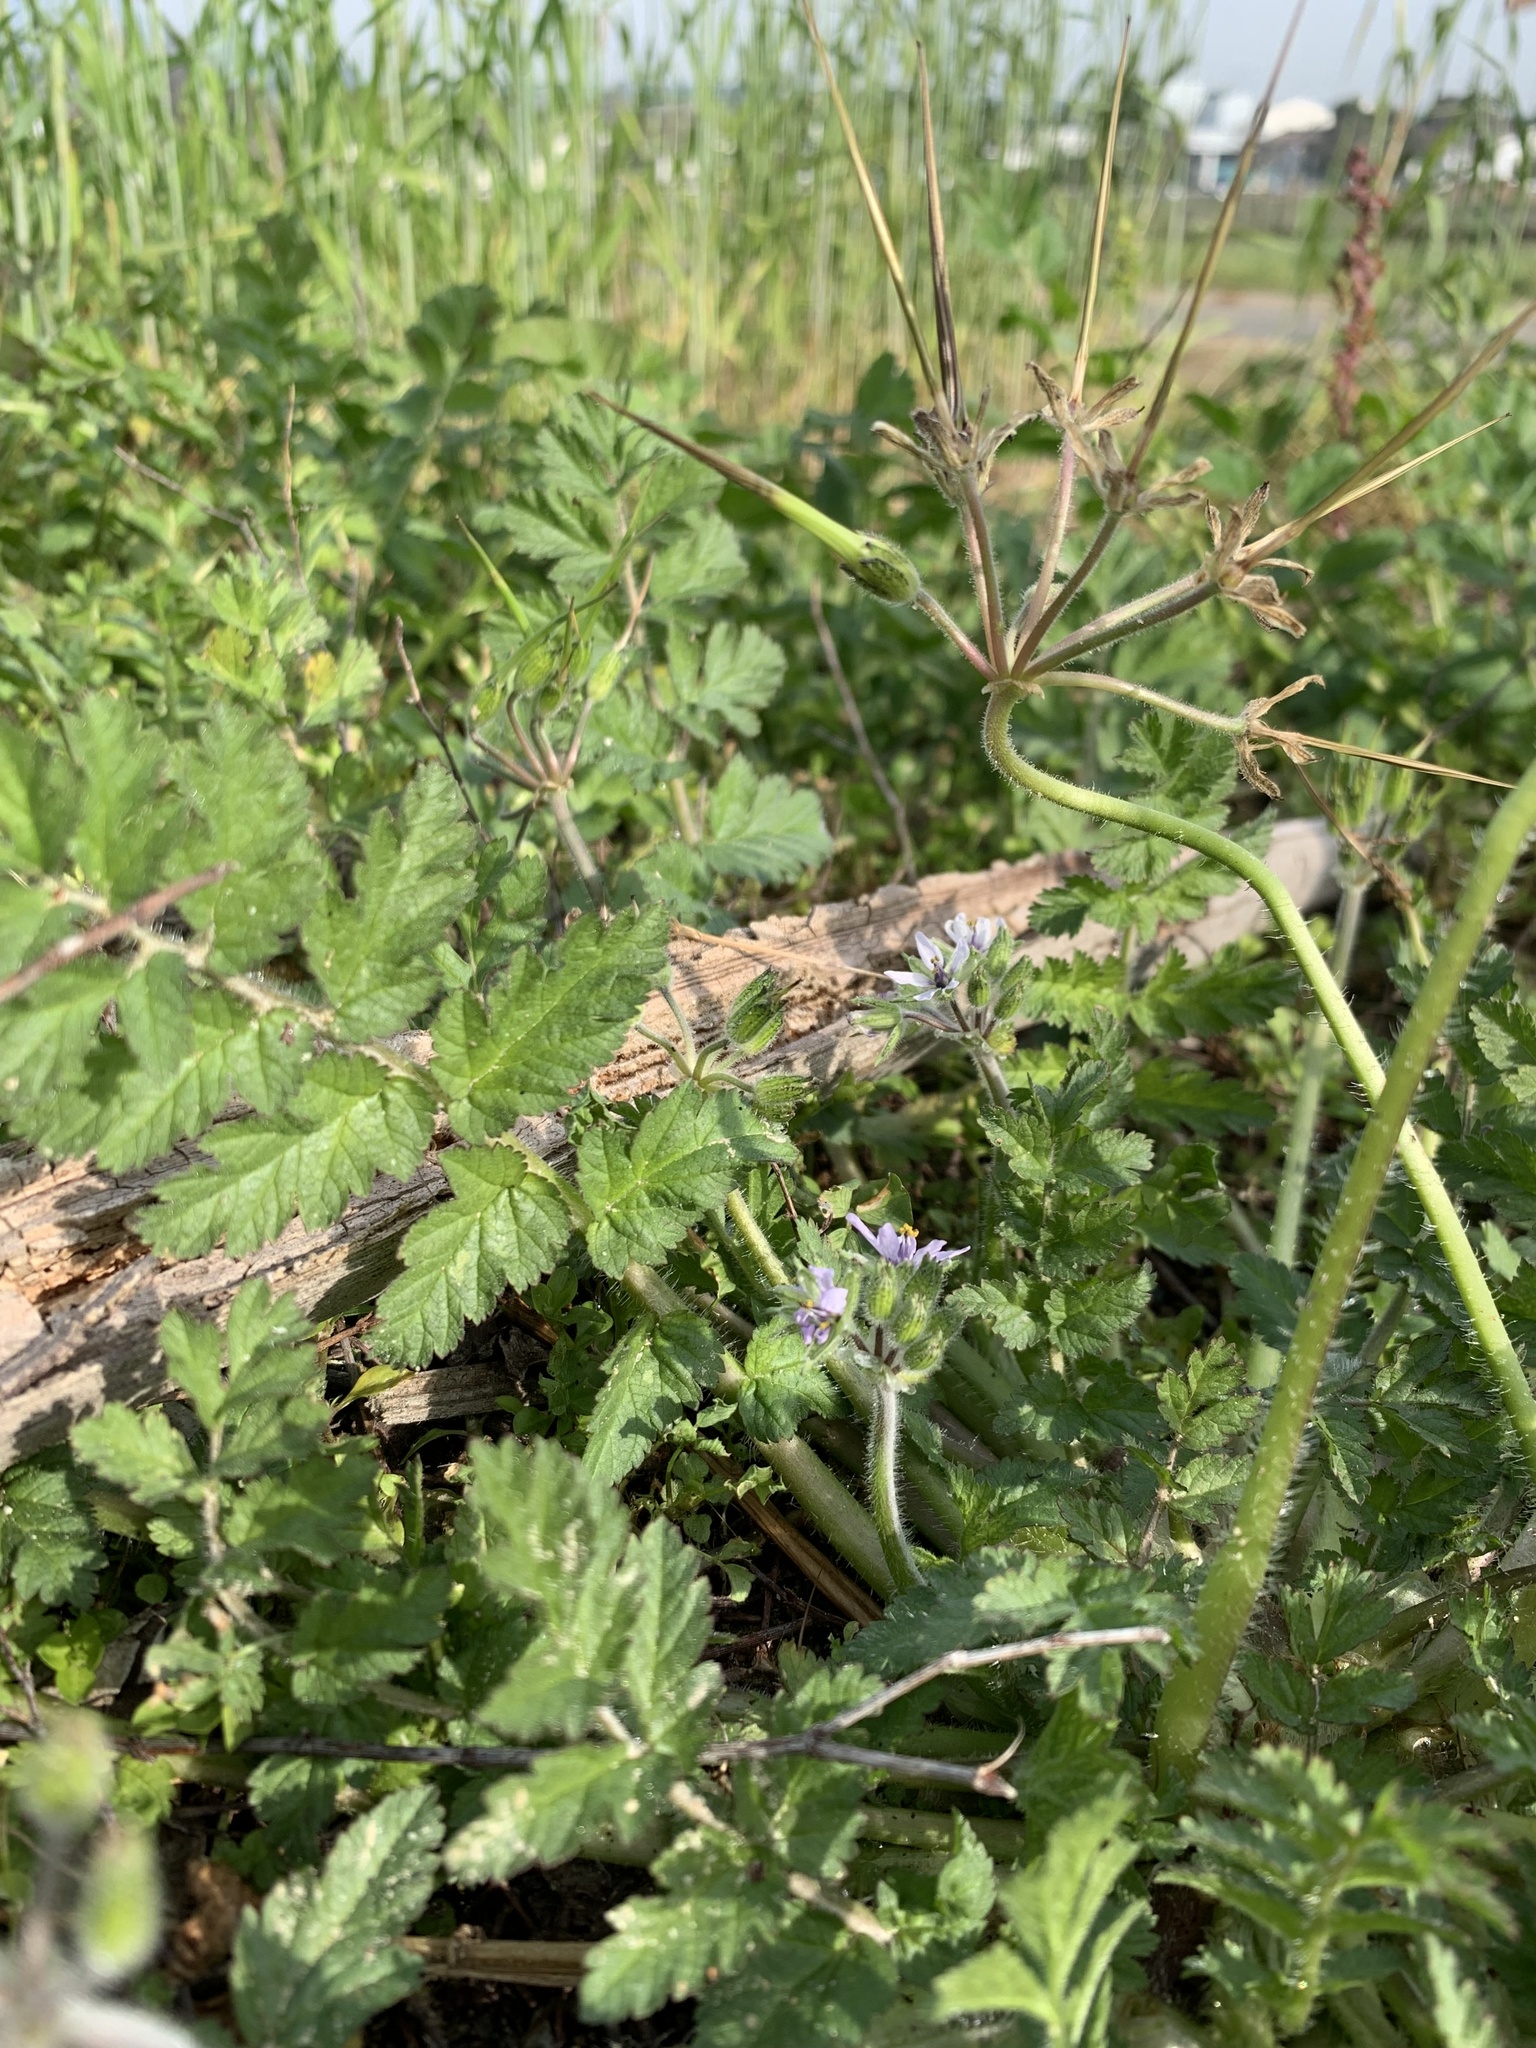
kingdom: Plantae
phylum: Tracheophyta
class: Magnoliopsida
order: Geraniales
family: Geraniaceae
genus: Erodium
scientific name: Erodium moschatum
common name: Musk stork's-bill
